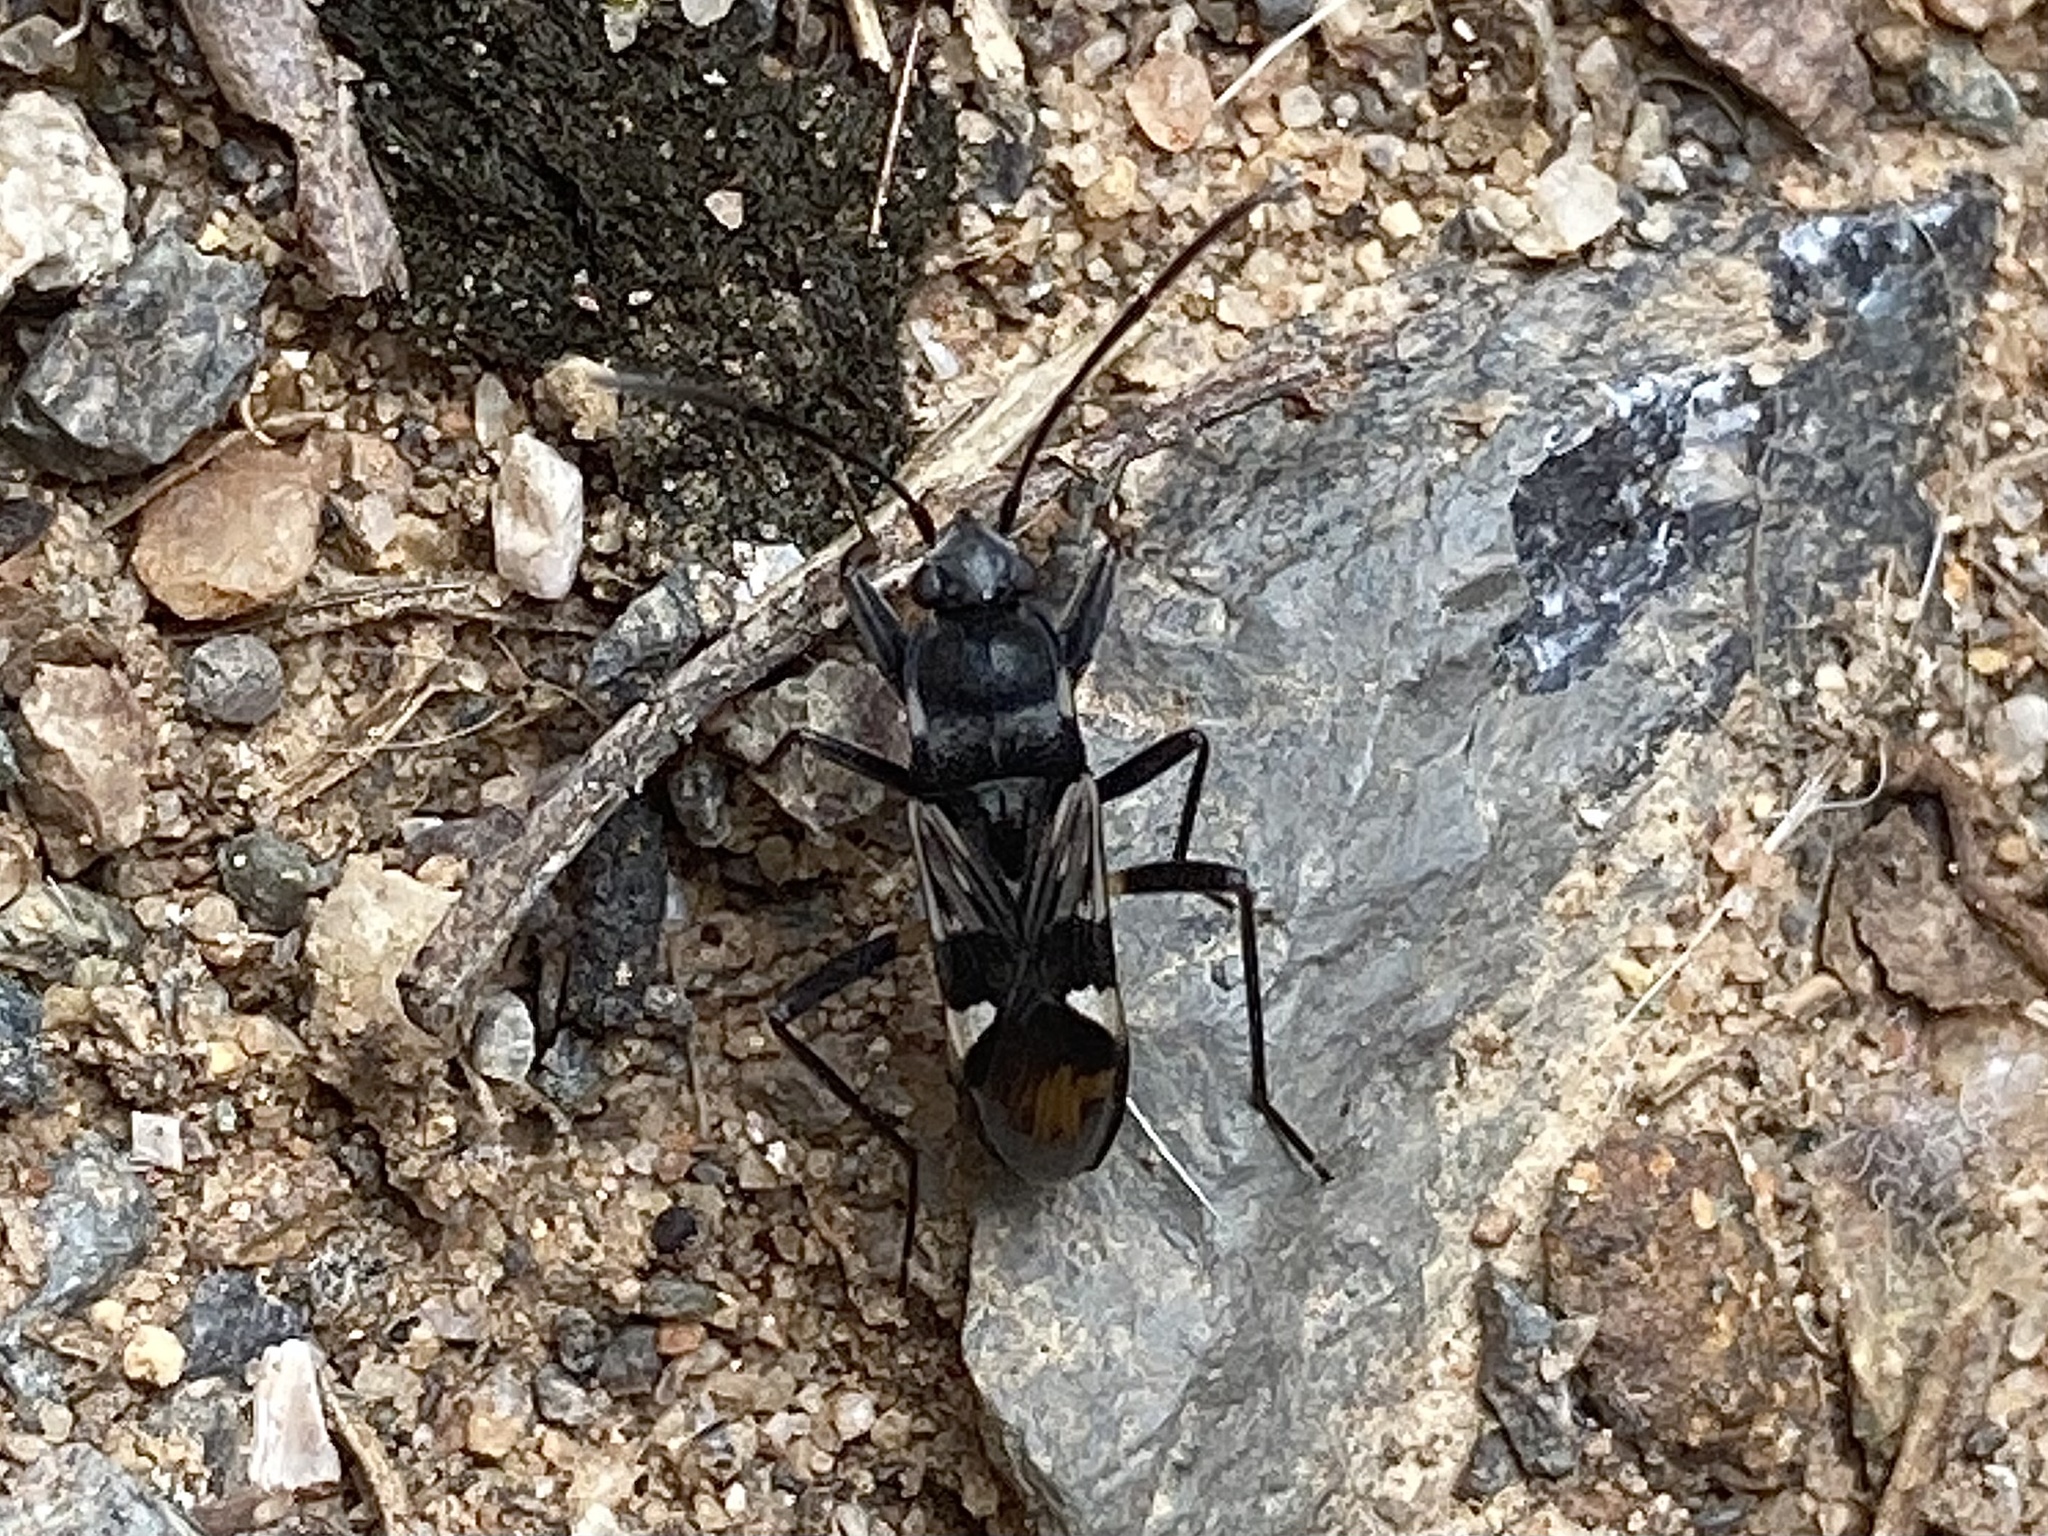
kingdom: Animalia
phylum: Arthropoda
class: Insecta
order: Hemiptera
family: Rhyparochromidae
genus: Dieuches
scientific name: Dieuches maculicollis
